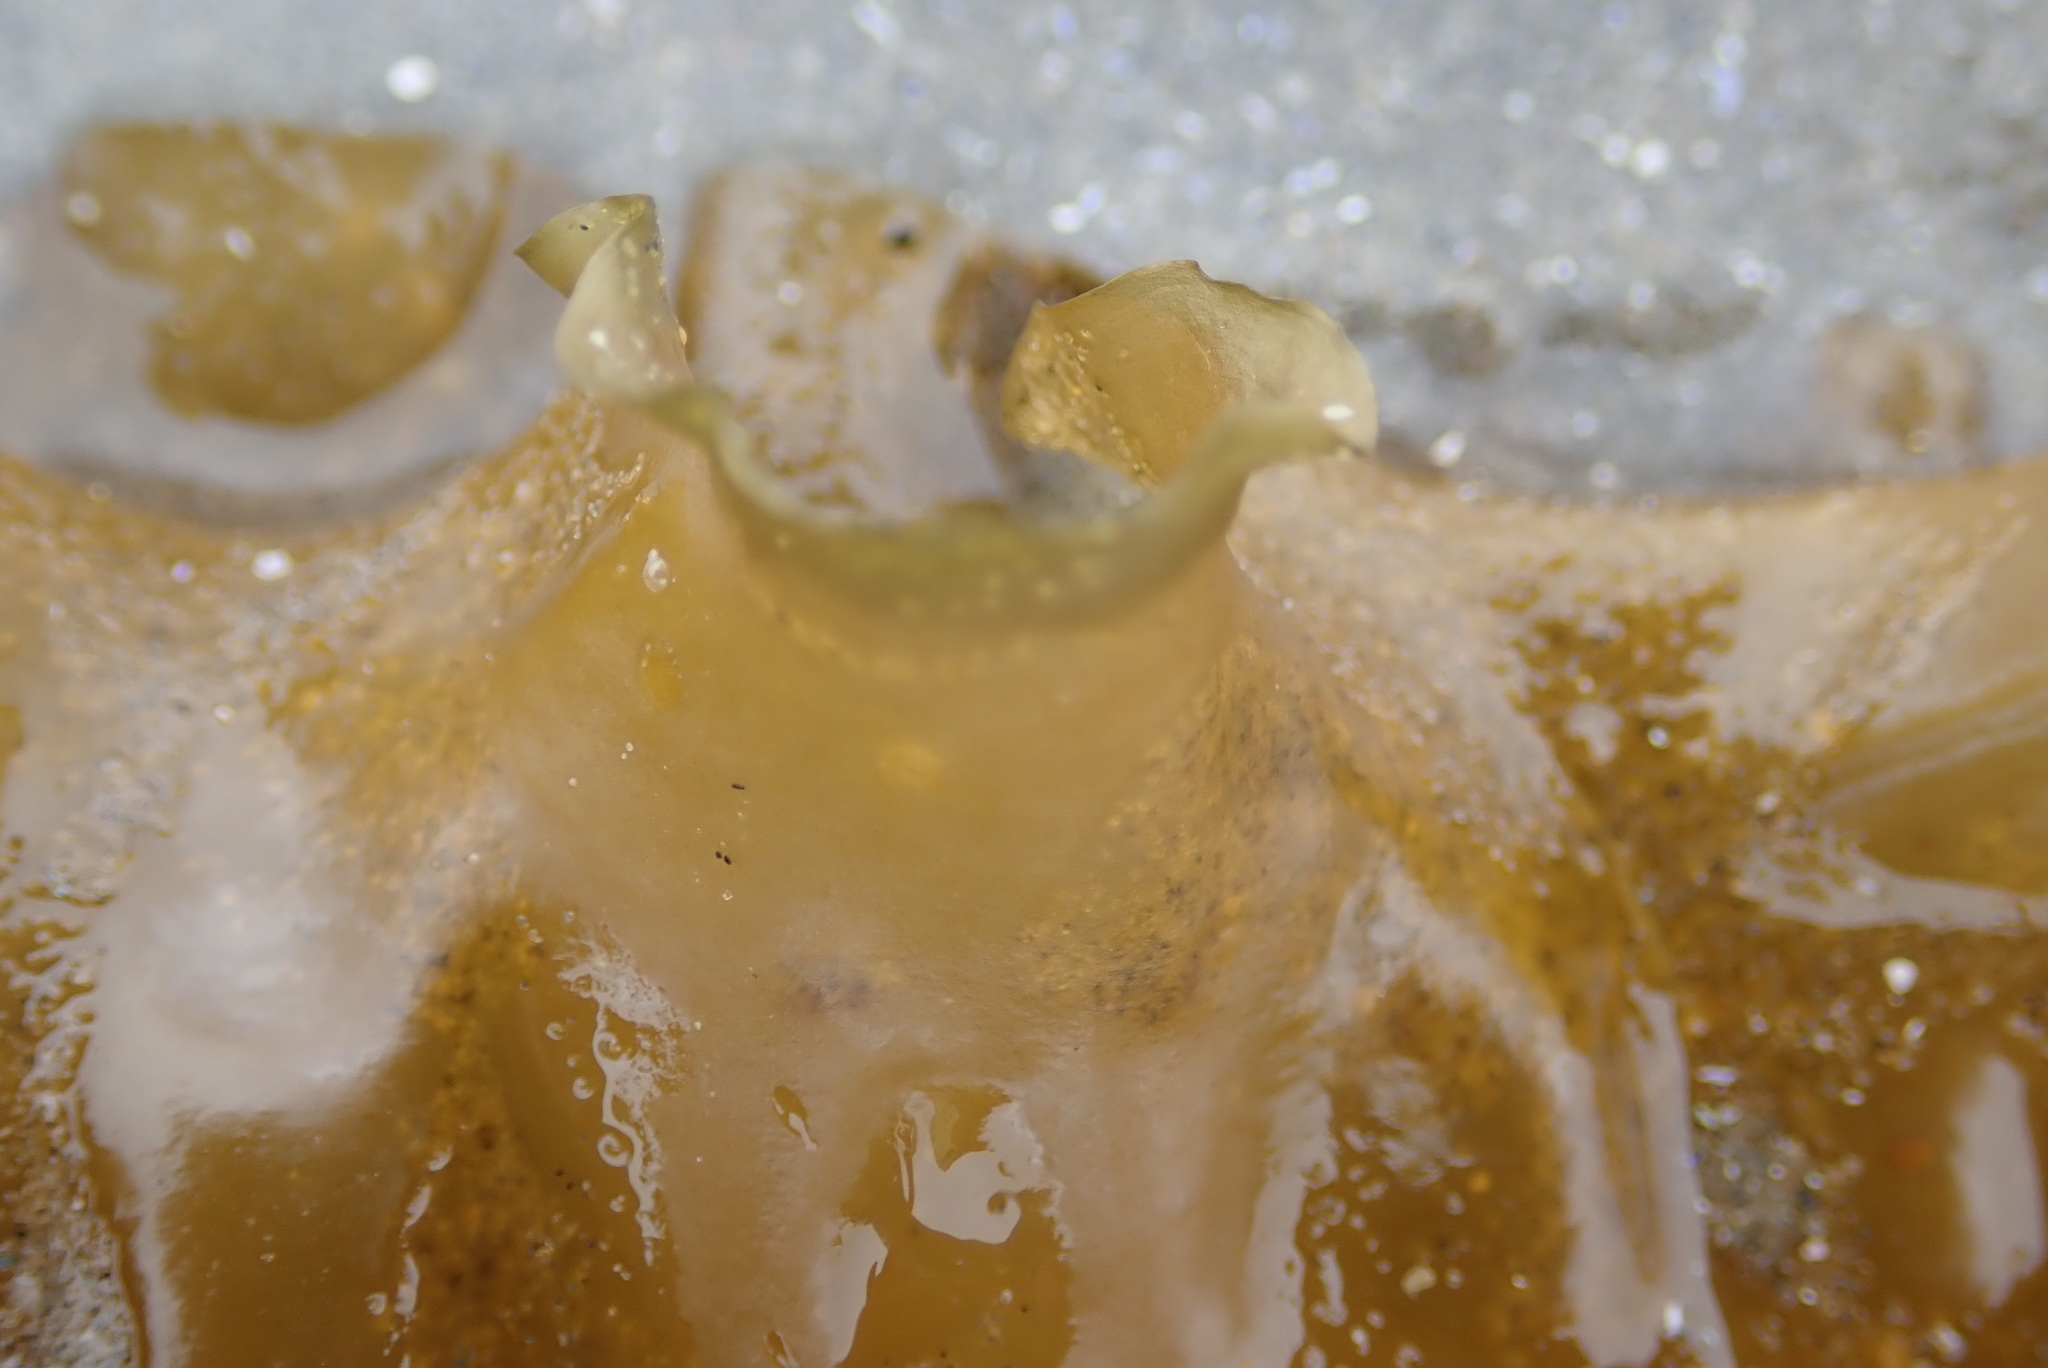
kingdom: Chromista
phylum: Ochrophyta
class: Phaeophyceae
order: Laminariales
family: Laminariaceae
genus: Saccharina
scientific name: Saccharina latissima
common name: Poor man's weather glass
